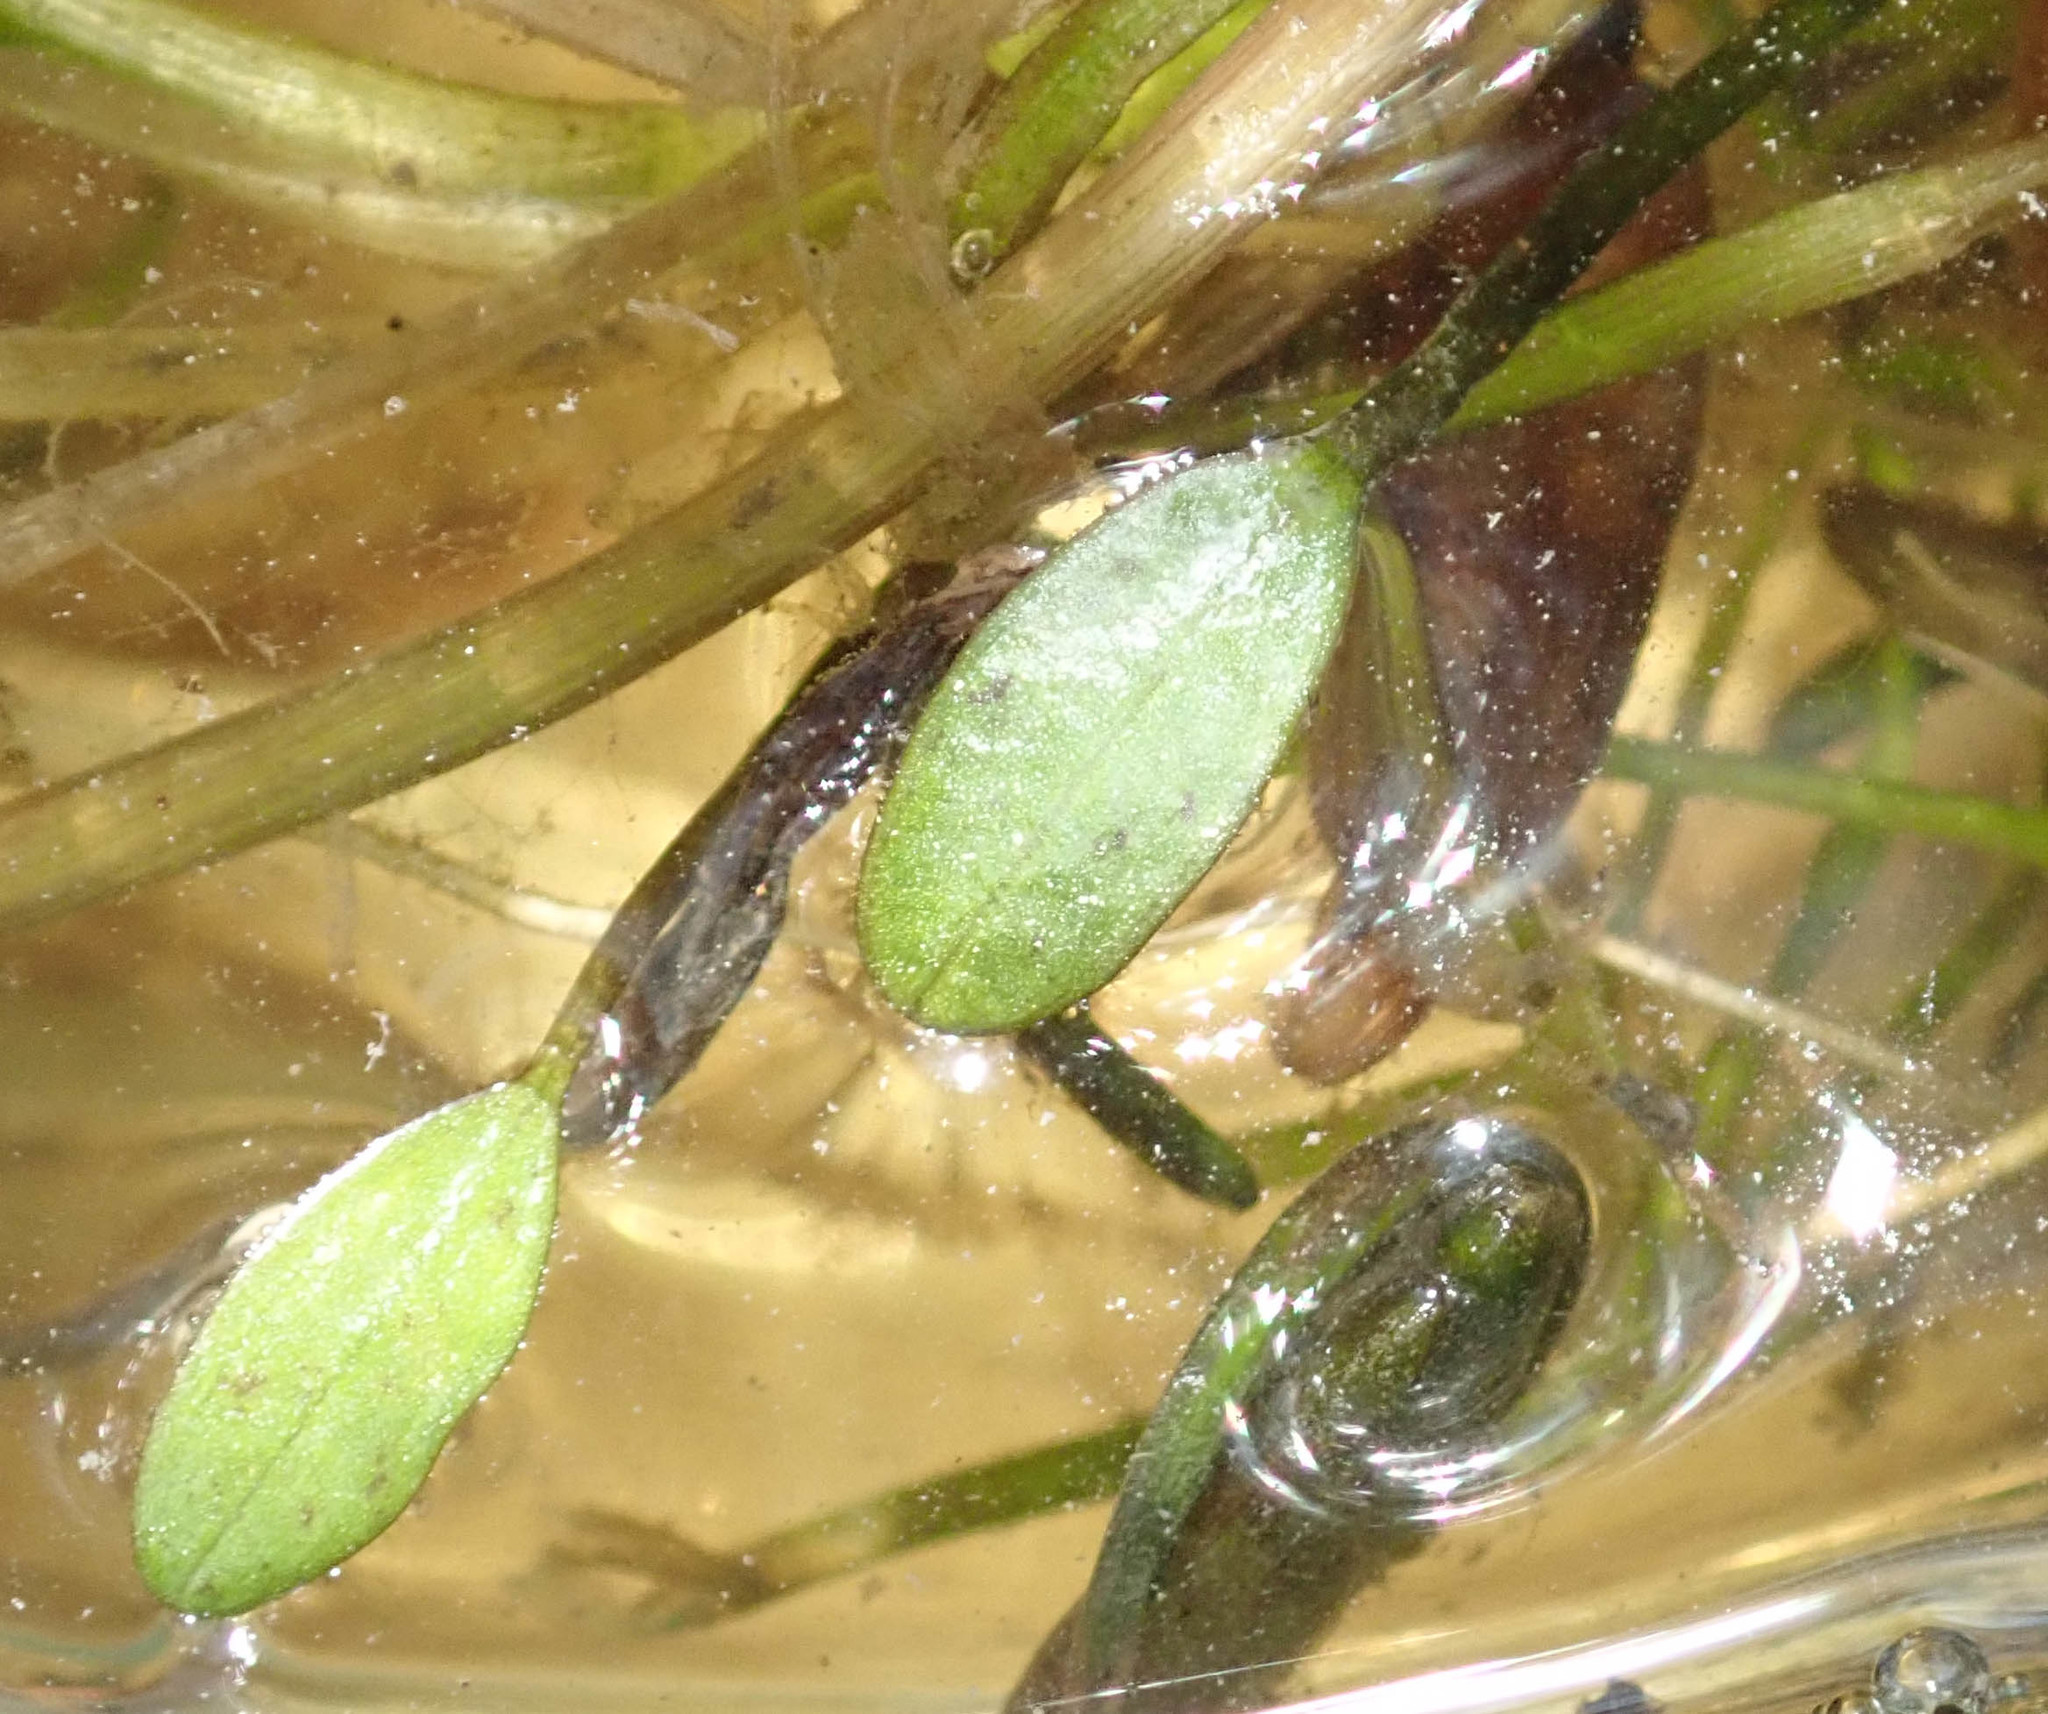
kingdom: Plantae
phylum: Tracheophyta
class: Liliopsida
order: Alismatales
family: Alismataceae
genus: Caldesia
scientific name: Caldesia parnassifolia
